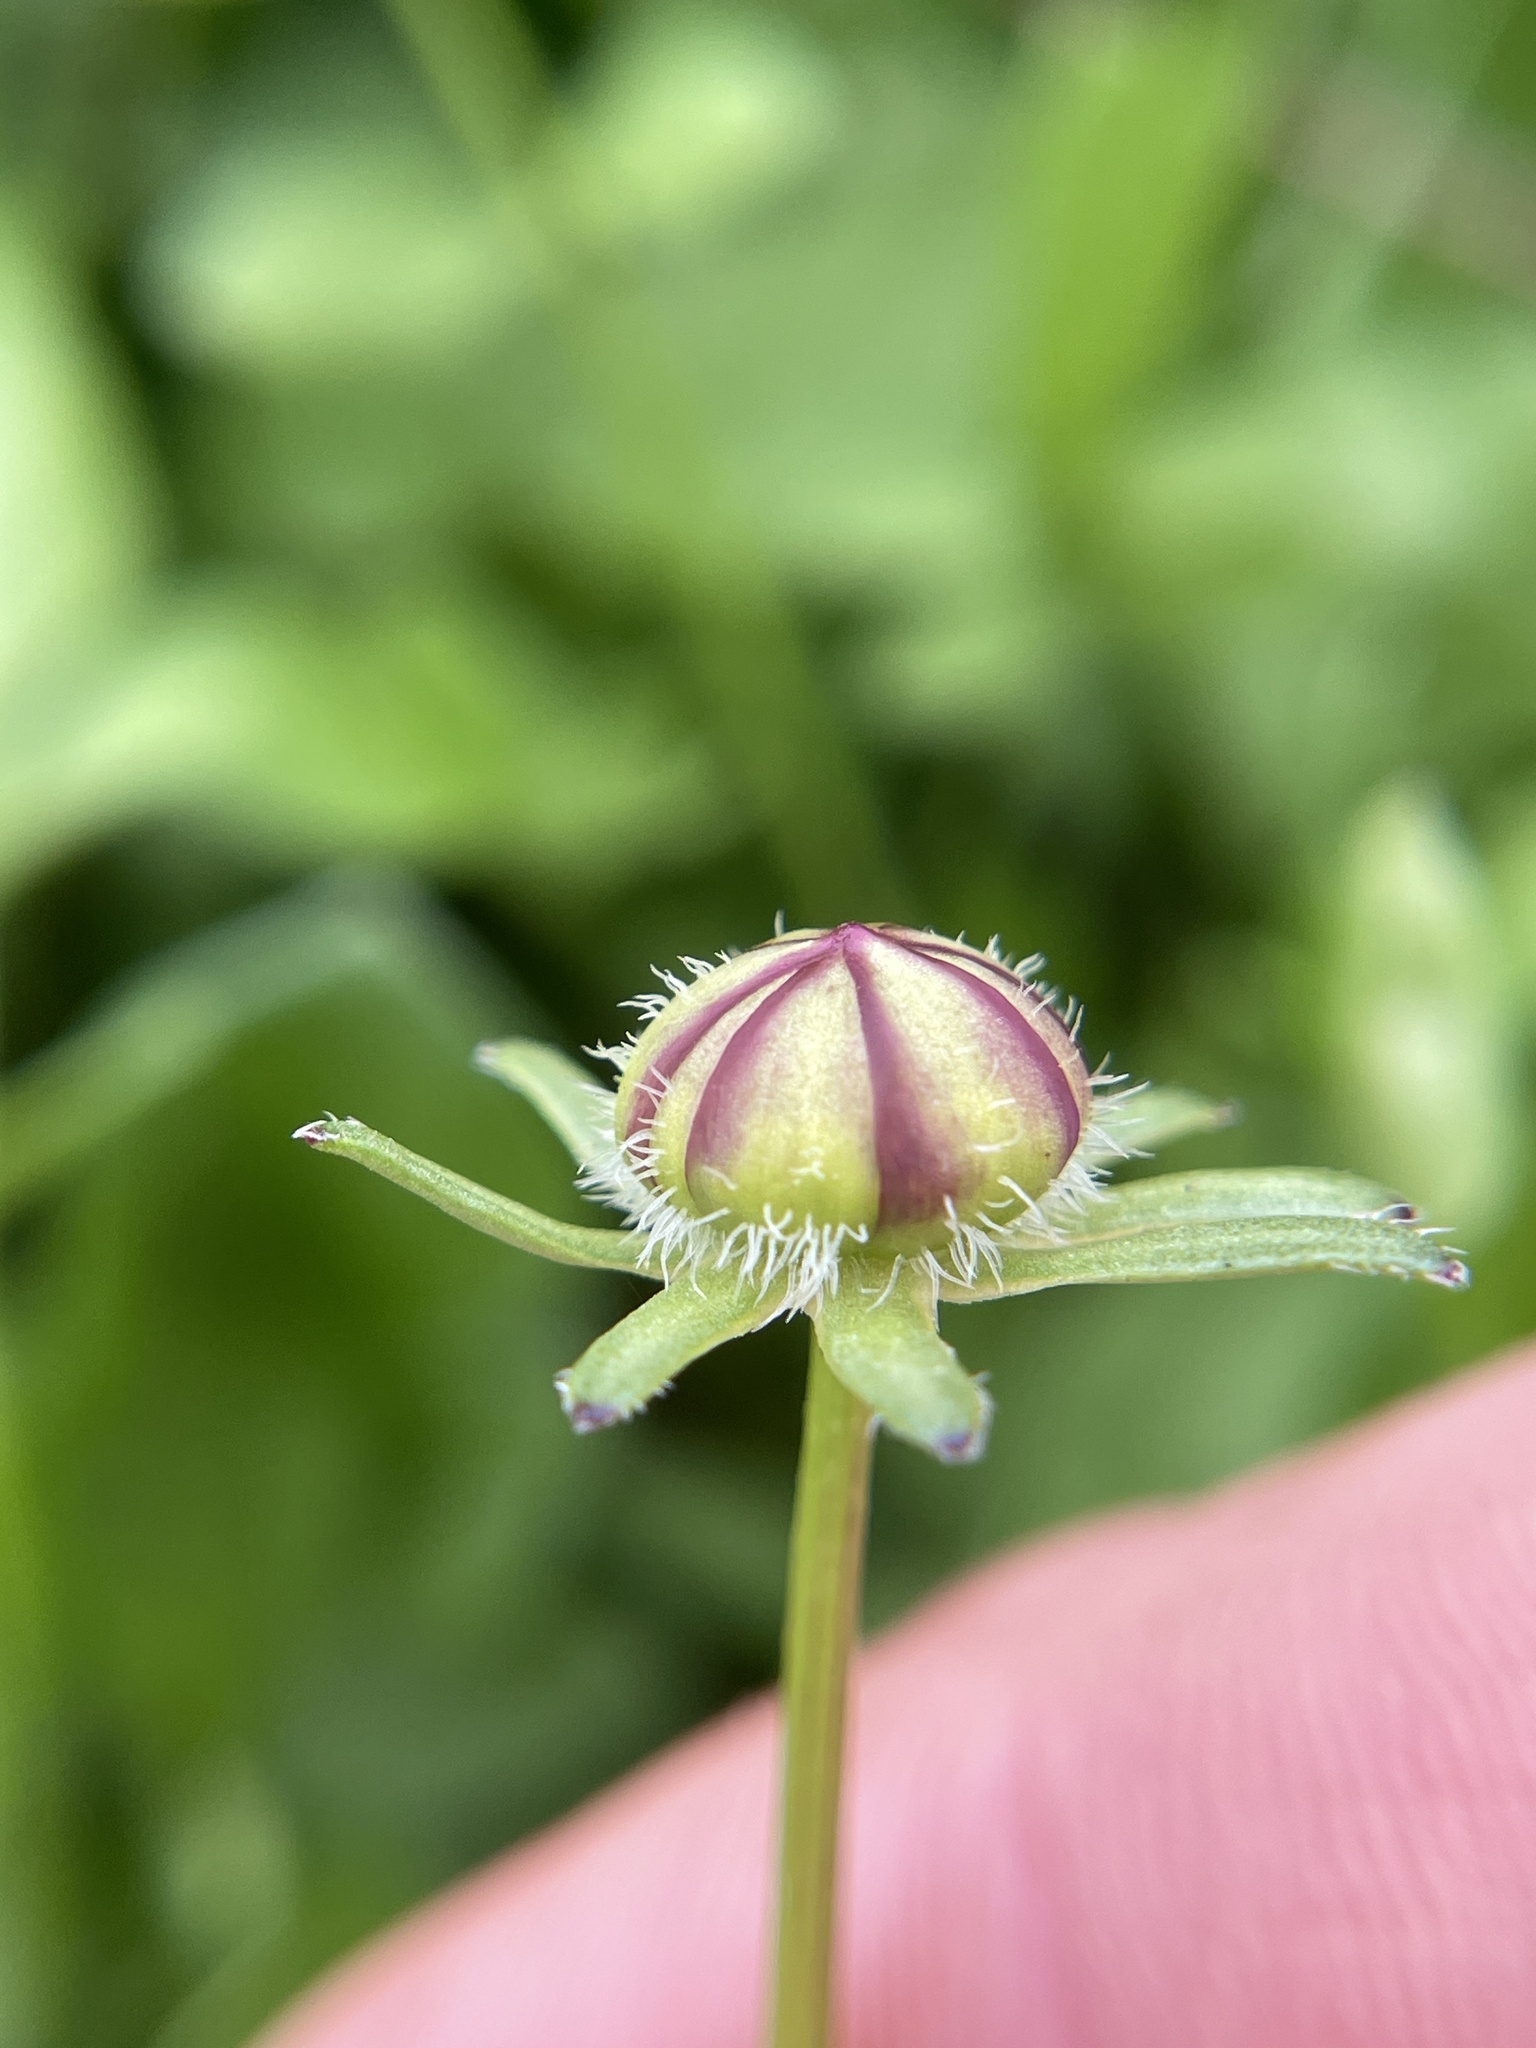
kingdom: Plantae
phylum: Tracheophyta
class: Magnoliopsida
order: Asterales
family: Asteraceae
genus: Coreopsis
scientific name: Coreopsis nuecensis
